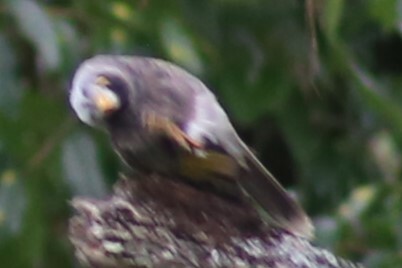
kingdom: Animalia
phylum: Chordata
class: Aves
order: Passeriformes
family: Meliphagidae
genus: Manorina
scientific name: Manorina melanocephala
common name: Noisy miner
